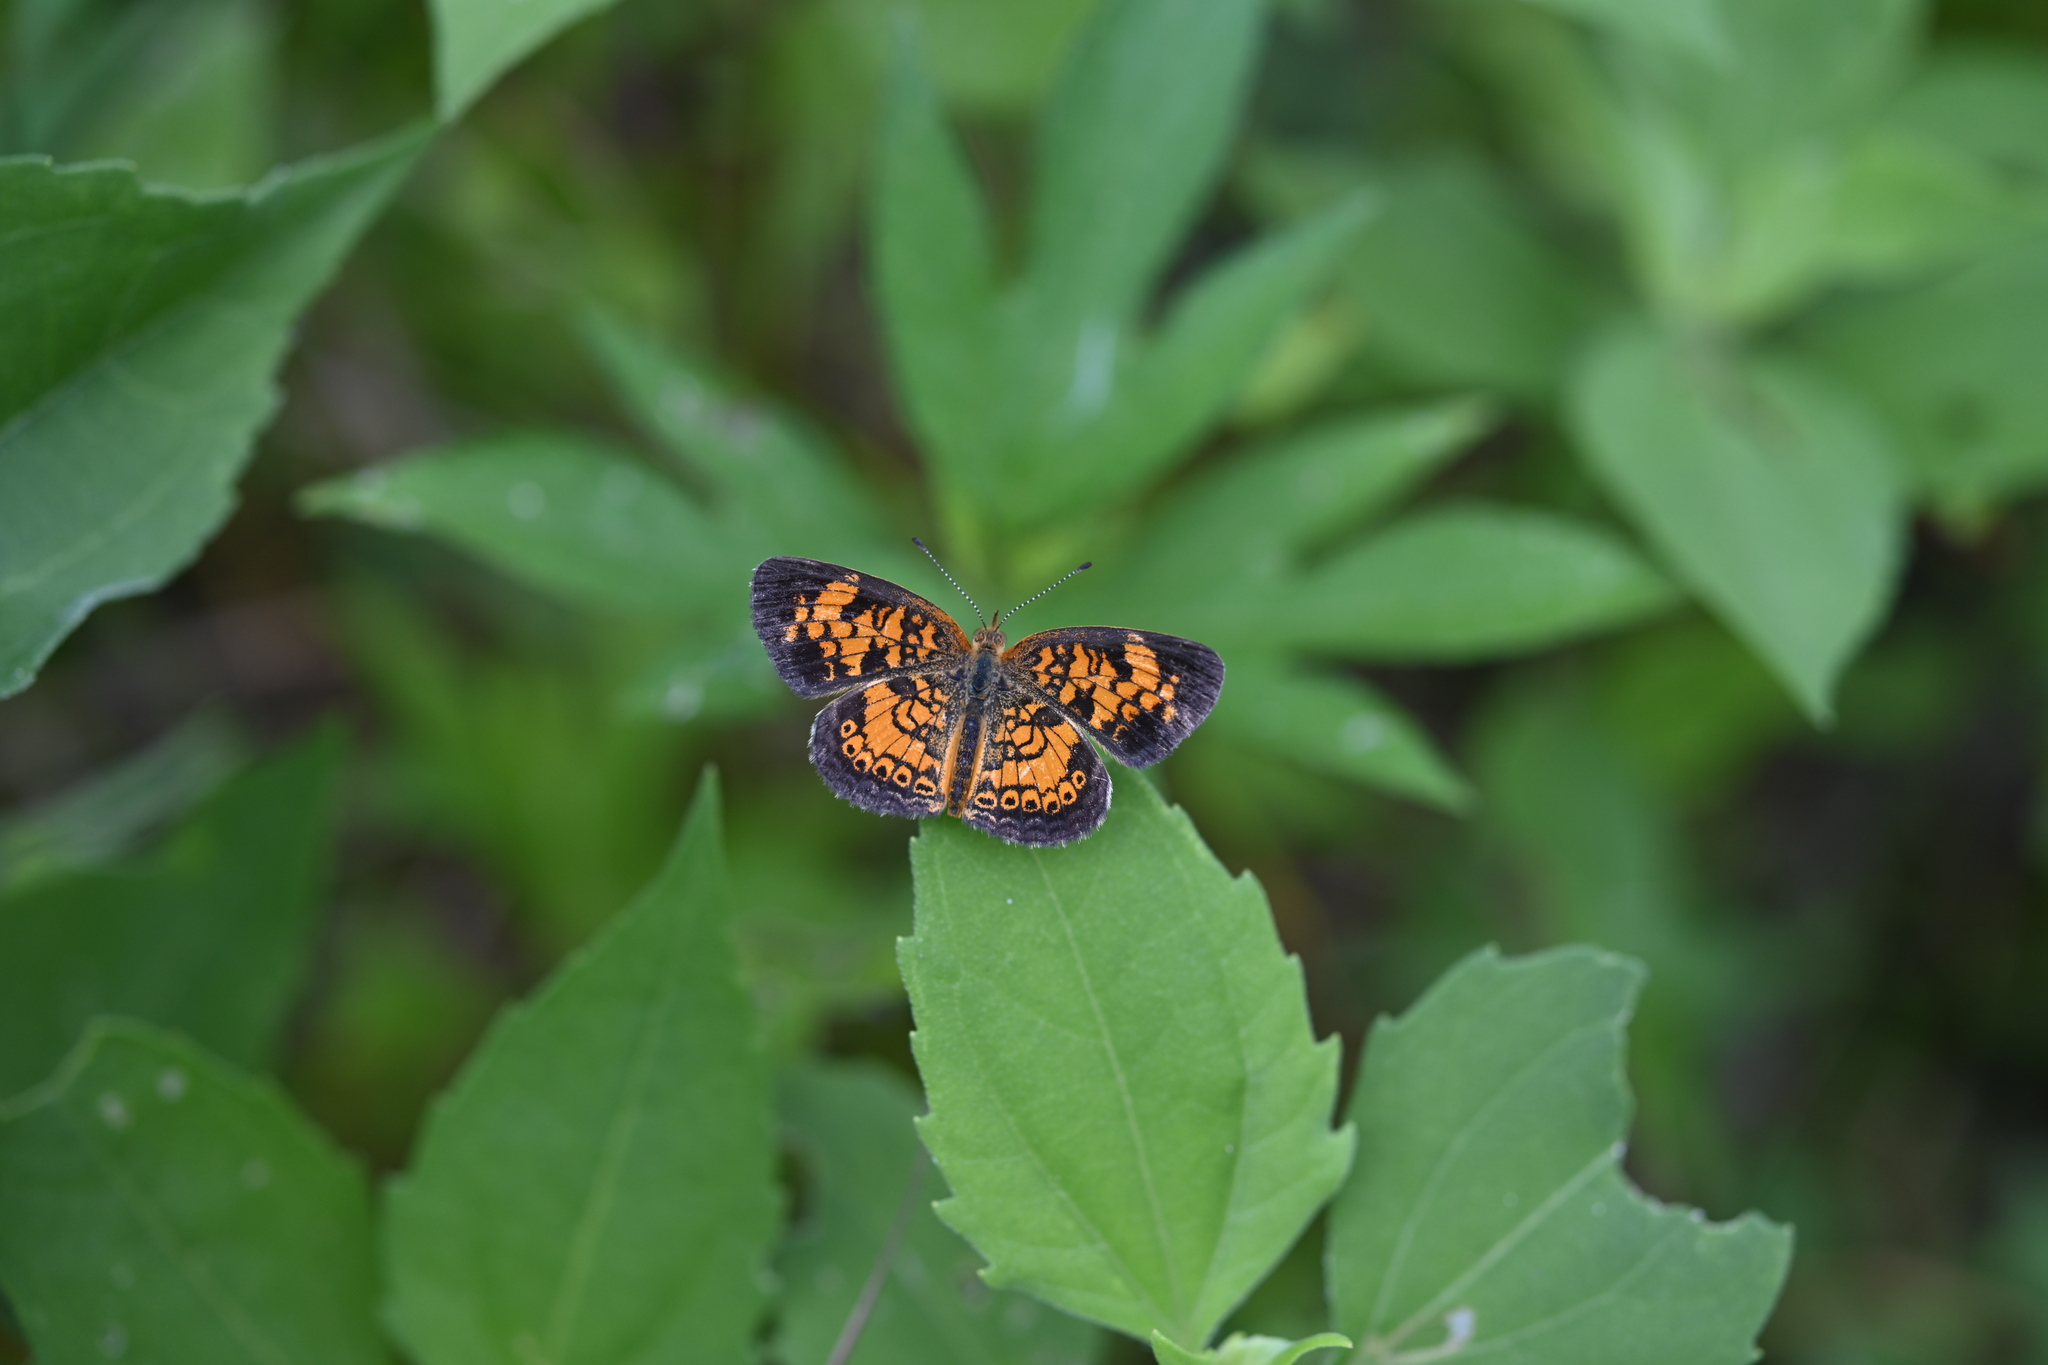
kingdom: Animalia
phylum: Arthropoda
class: Insecta
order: Lepidoptera
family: Nymphalidae
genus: Phyciodes
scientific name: Phyciodes tharos
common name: Pearl crescent
